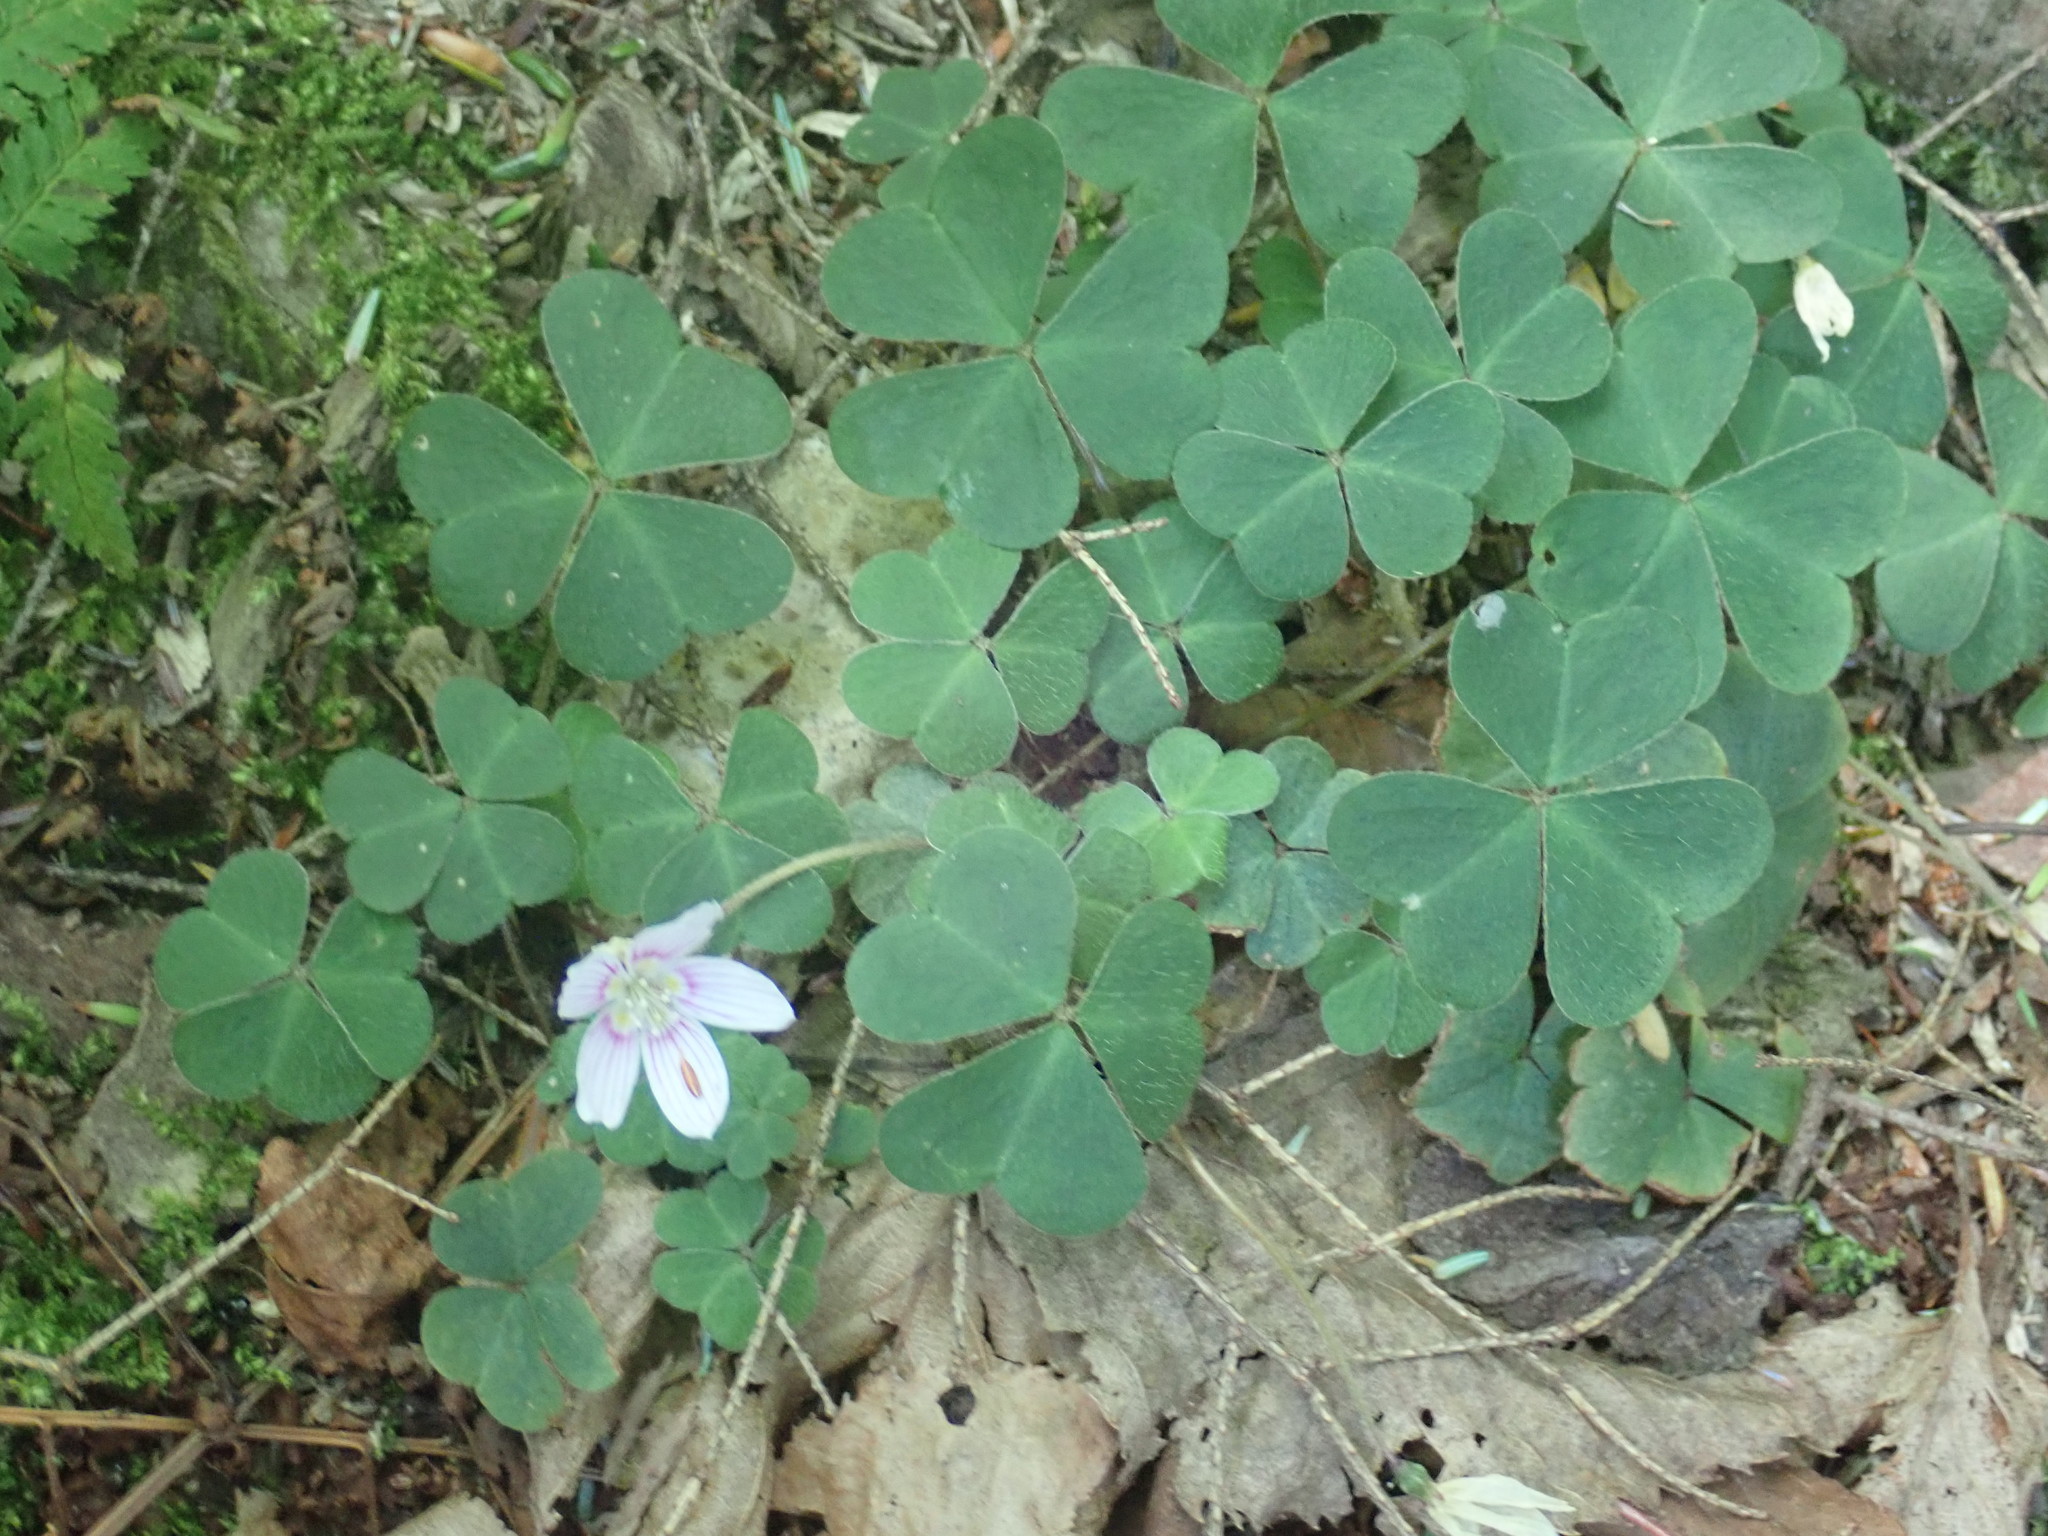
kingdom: Plantae
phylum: Tracheophyta
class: Magnoliopsida
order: Oxalidales
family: Oxalidaceae
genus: Oxalis
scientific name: Oxalis montana
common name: American wood-sorrel
